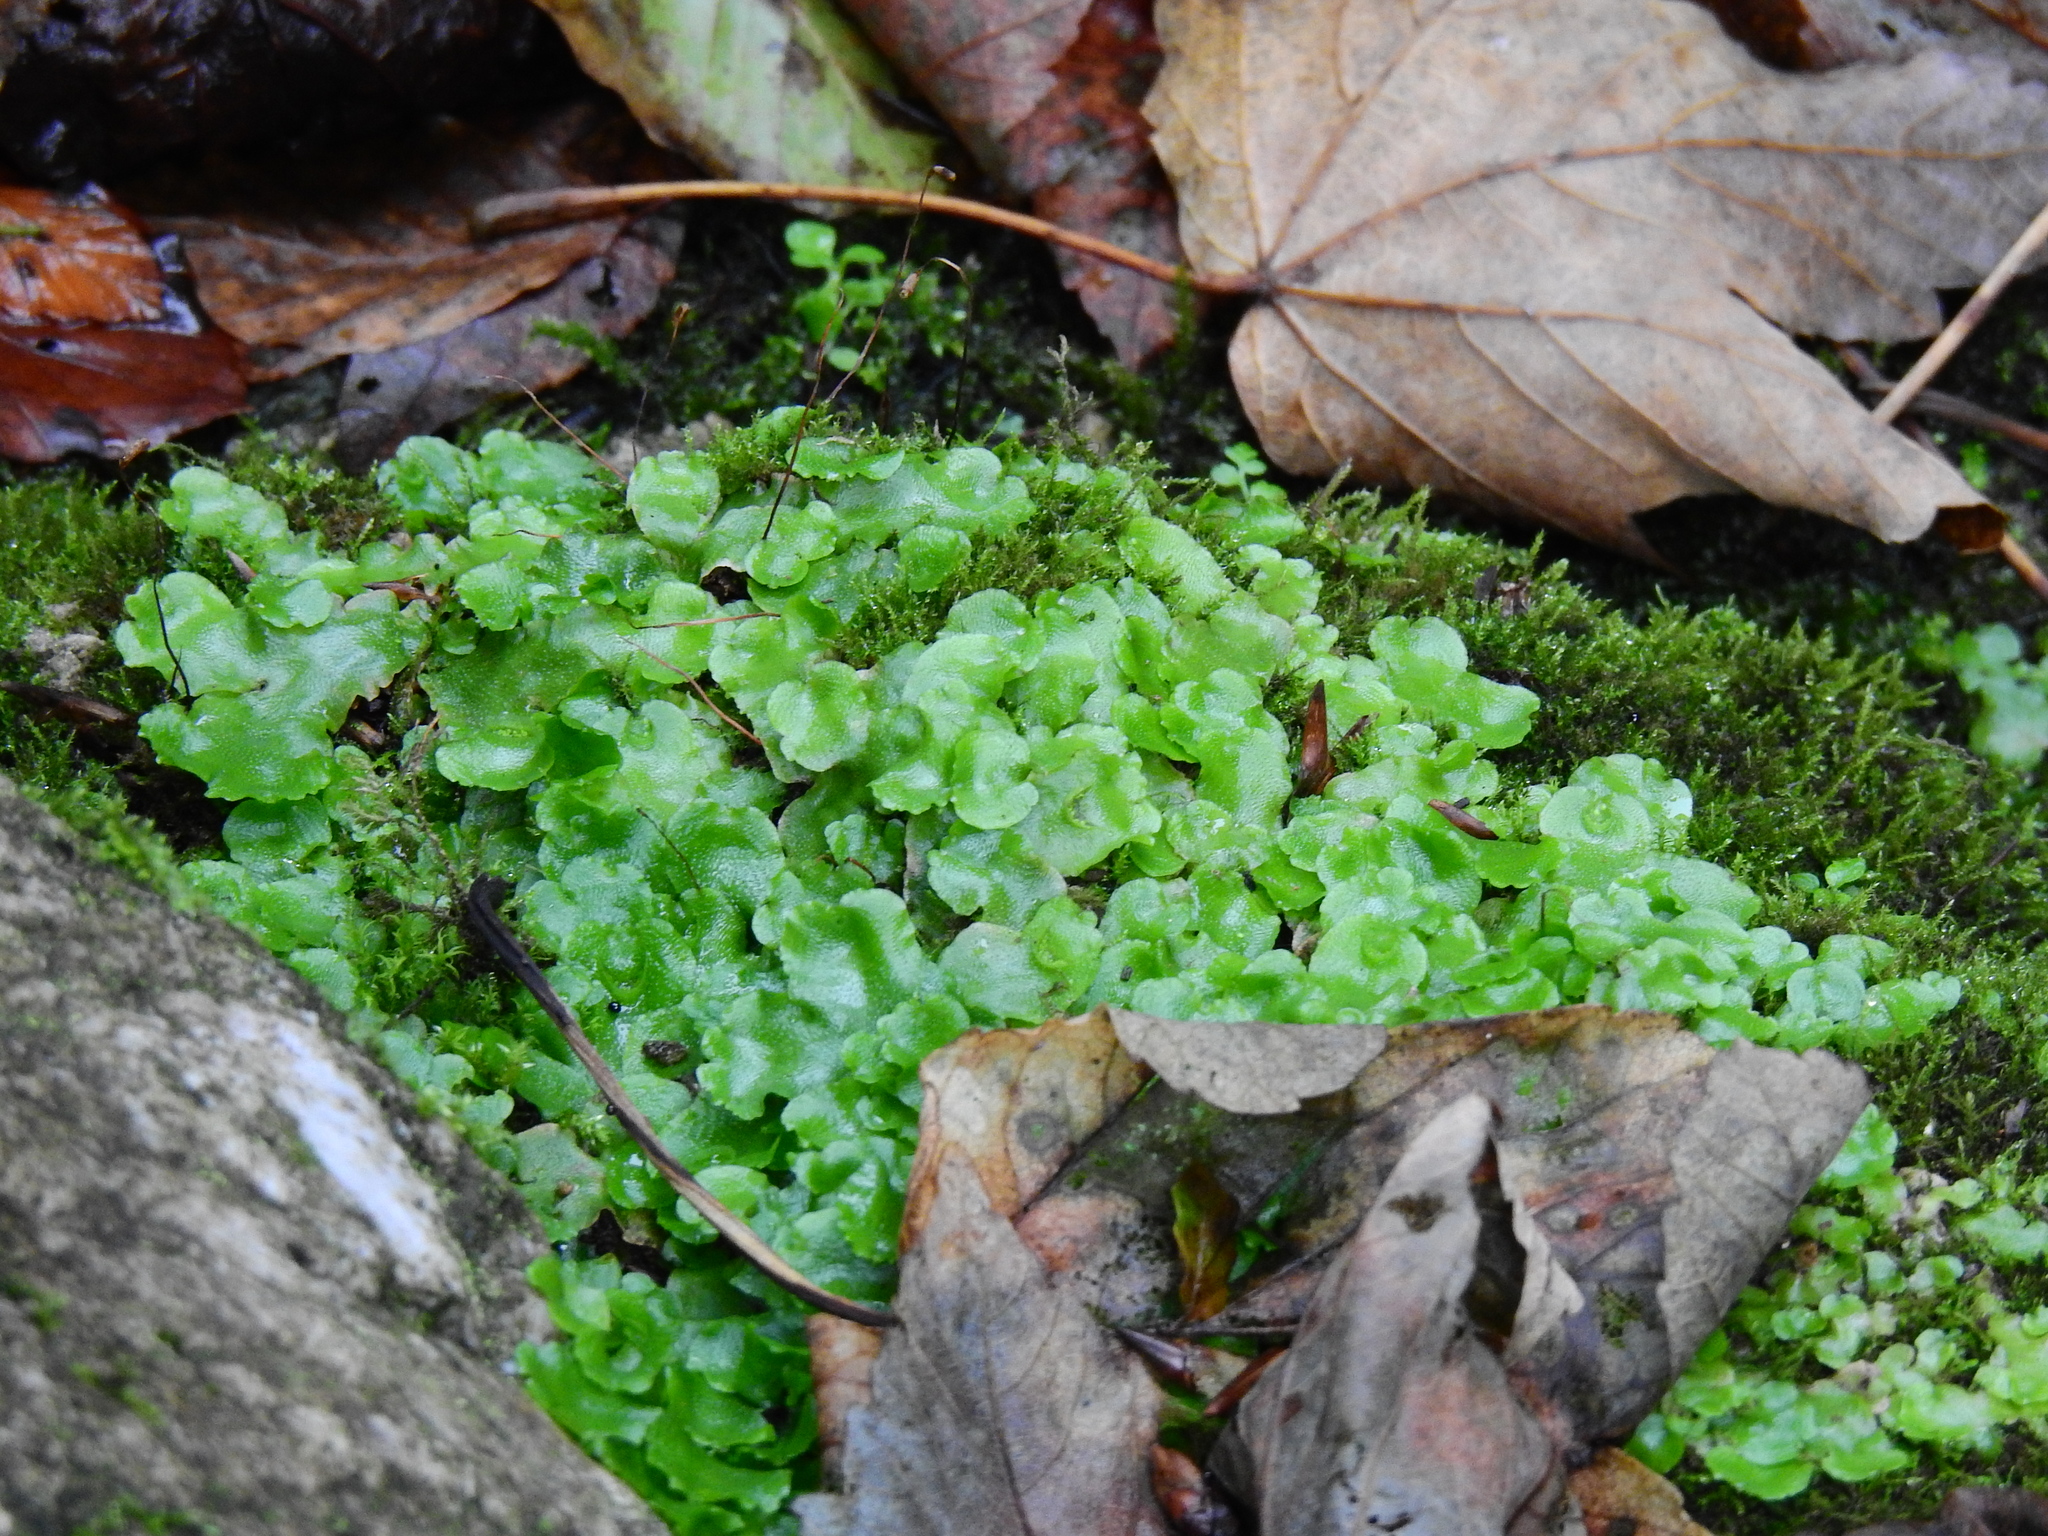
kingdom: Plantae
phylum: Marchantiophyta
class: Marchantiopsida
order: Lunulariales
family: Lunulariaceae
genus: Lunularia
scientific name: Lunularia cruciata
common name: Crescent-cup liverwort
